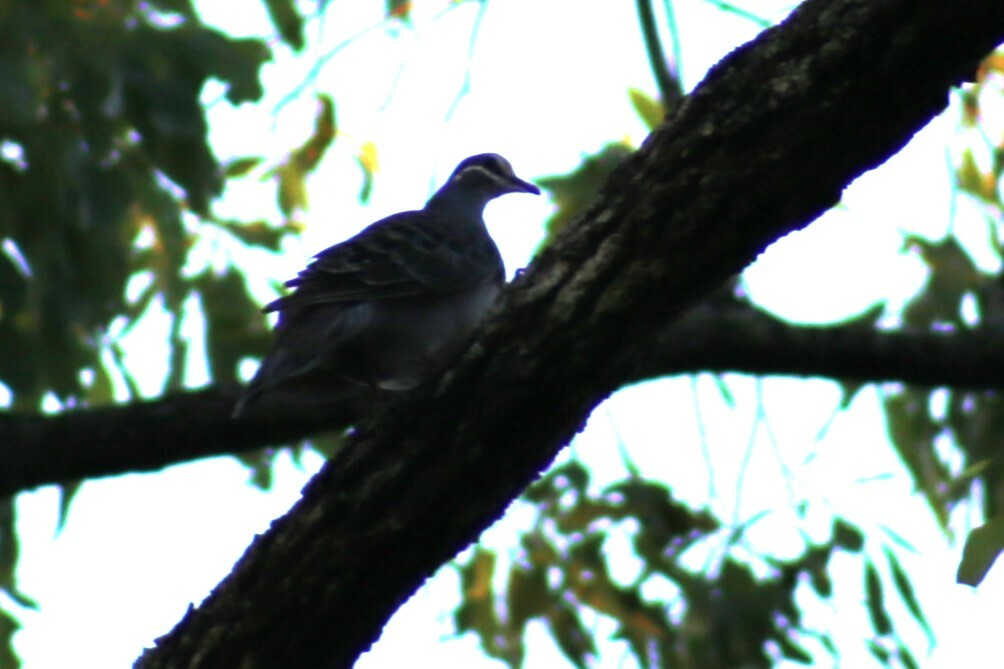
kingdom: Animalia
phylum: Chordata
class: Aves
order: Columbiformes
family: Columbidae
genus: Phaps
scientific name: Phaps chalcoptera
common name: Common bronzewing
